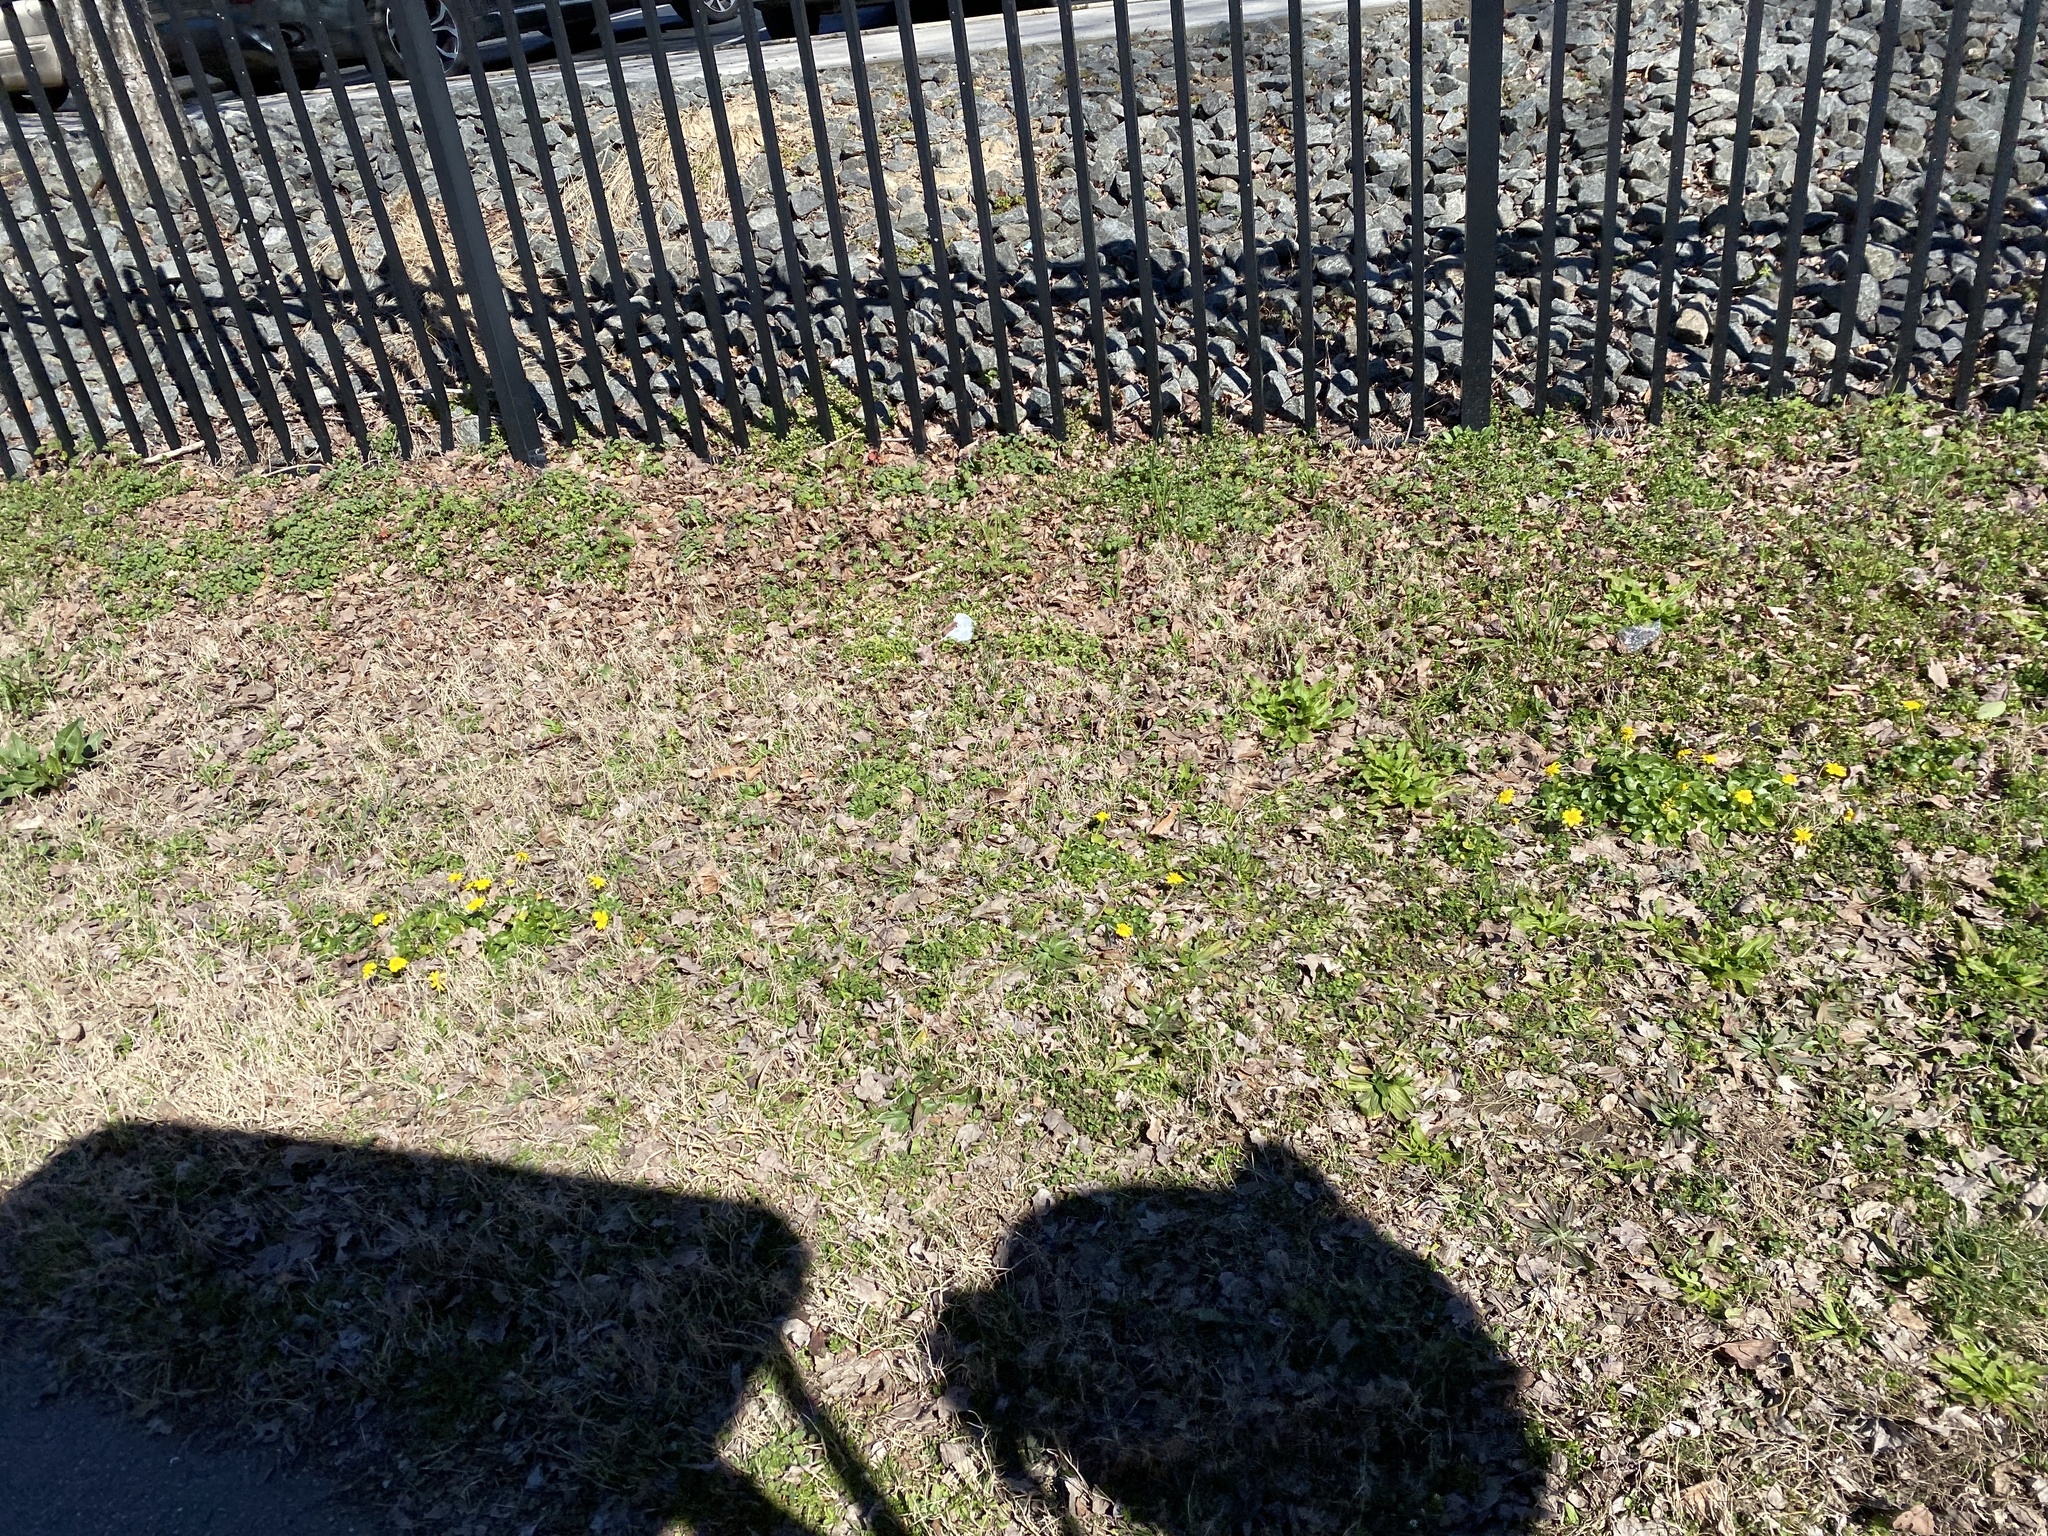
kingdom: Plantae
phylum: Tracheophyta
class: Magnoliopsida
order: Ranunculales
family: Ranunculaceae
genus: Ficaria
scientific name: Ficaria verna
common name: Lesser celandine
